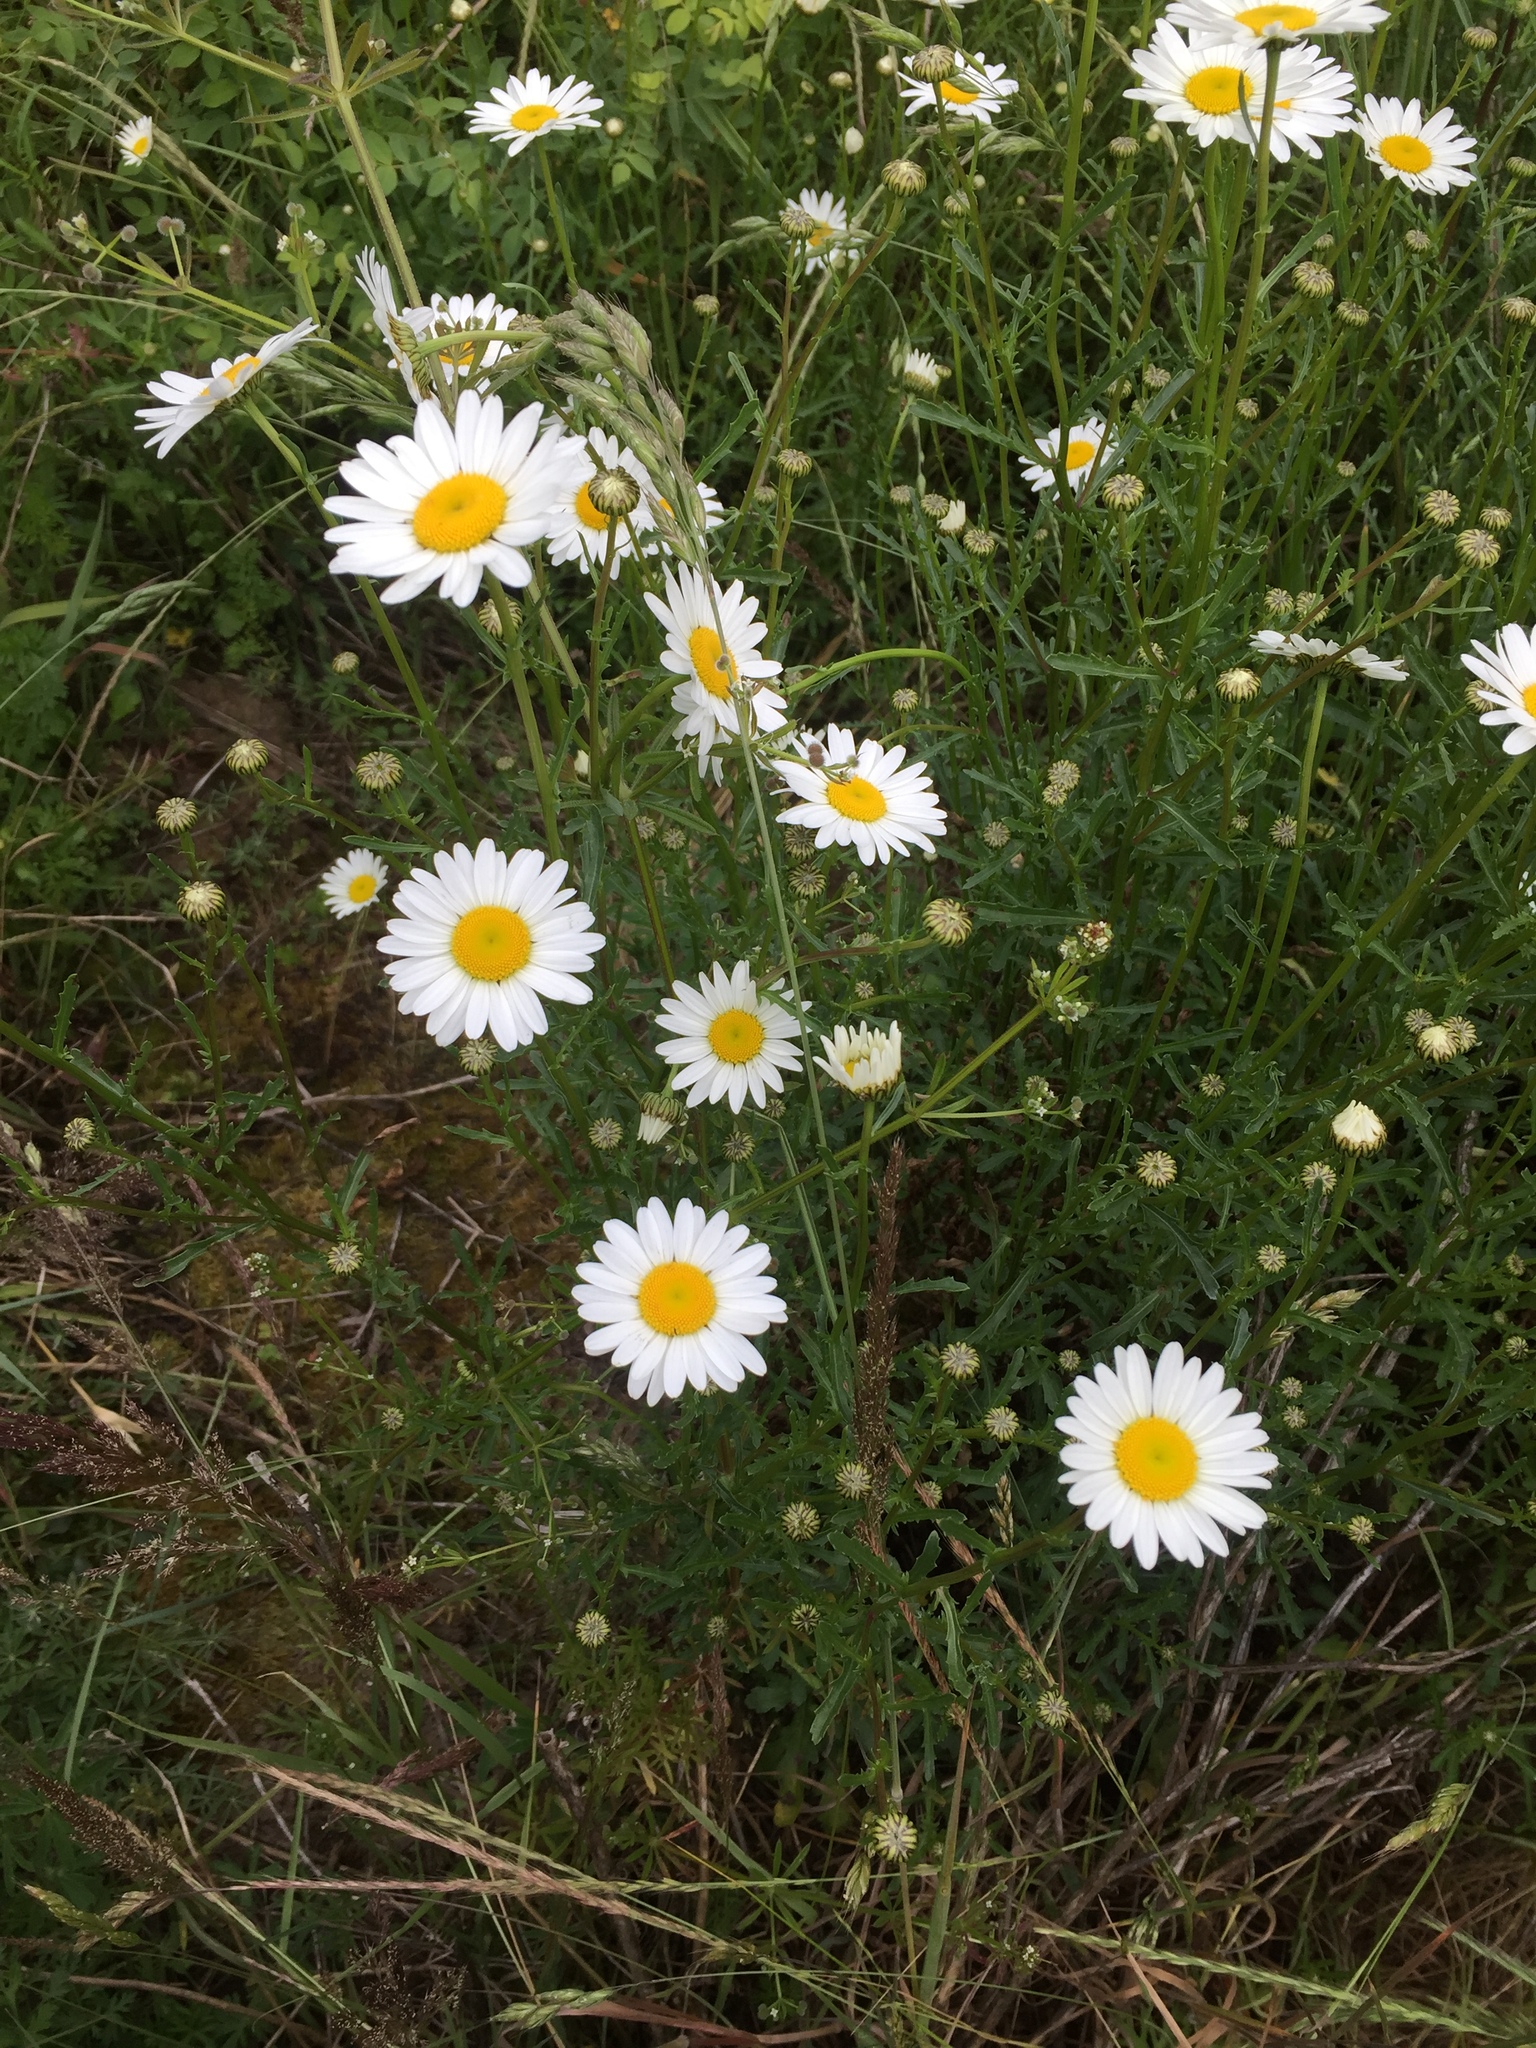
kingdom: Plantae
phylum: Tracheophyta
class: Magnoliopsida
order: Asterales
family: Asteraceae
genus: Leucanthemum
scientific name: Leucanthemum vulgare
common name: Oxeye daisy
